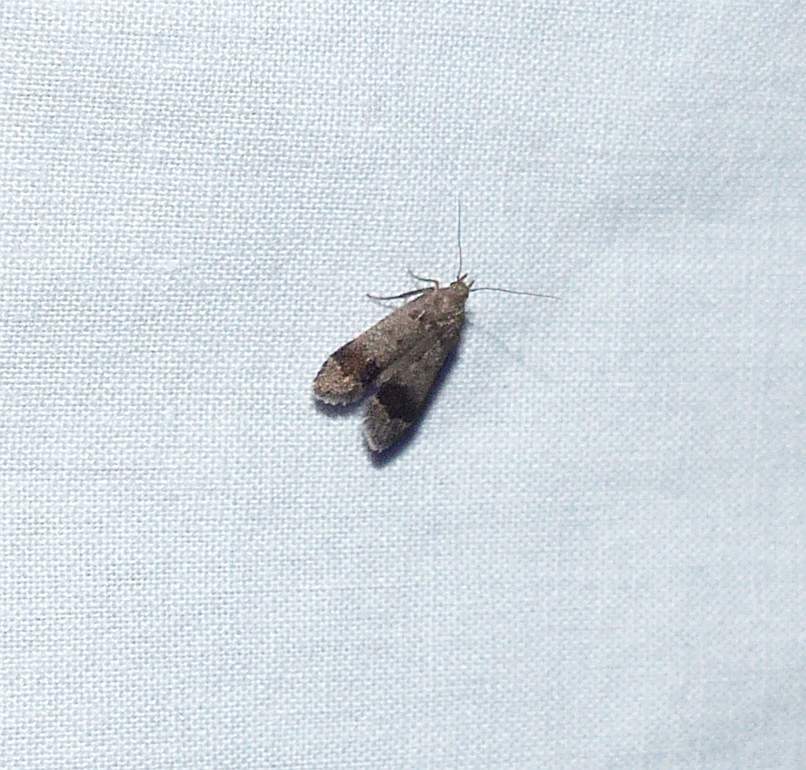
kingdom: Animalia
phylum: Arthropoda
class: Insecta
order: Lepidoptera
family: Gelechiidae
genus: Anacampsis
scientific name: Anacampsis fragariella
